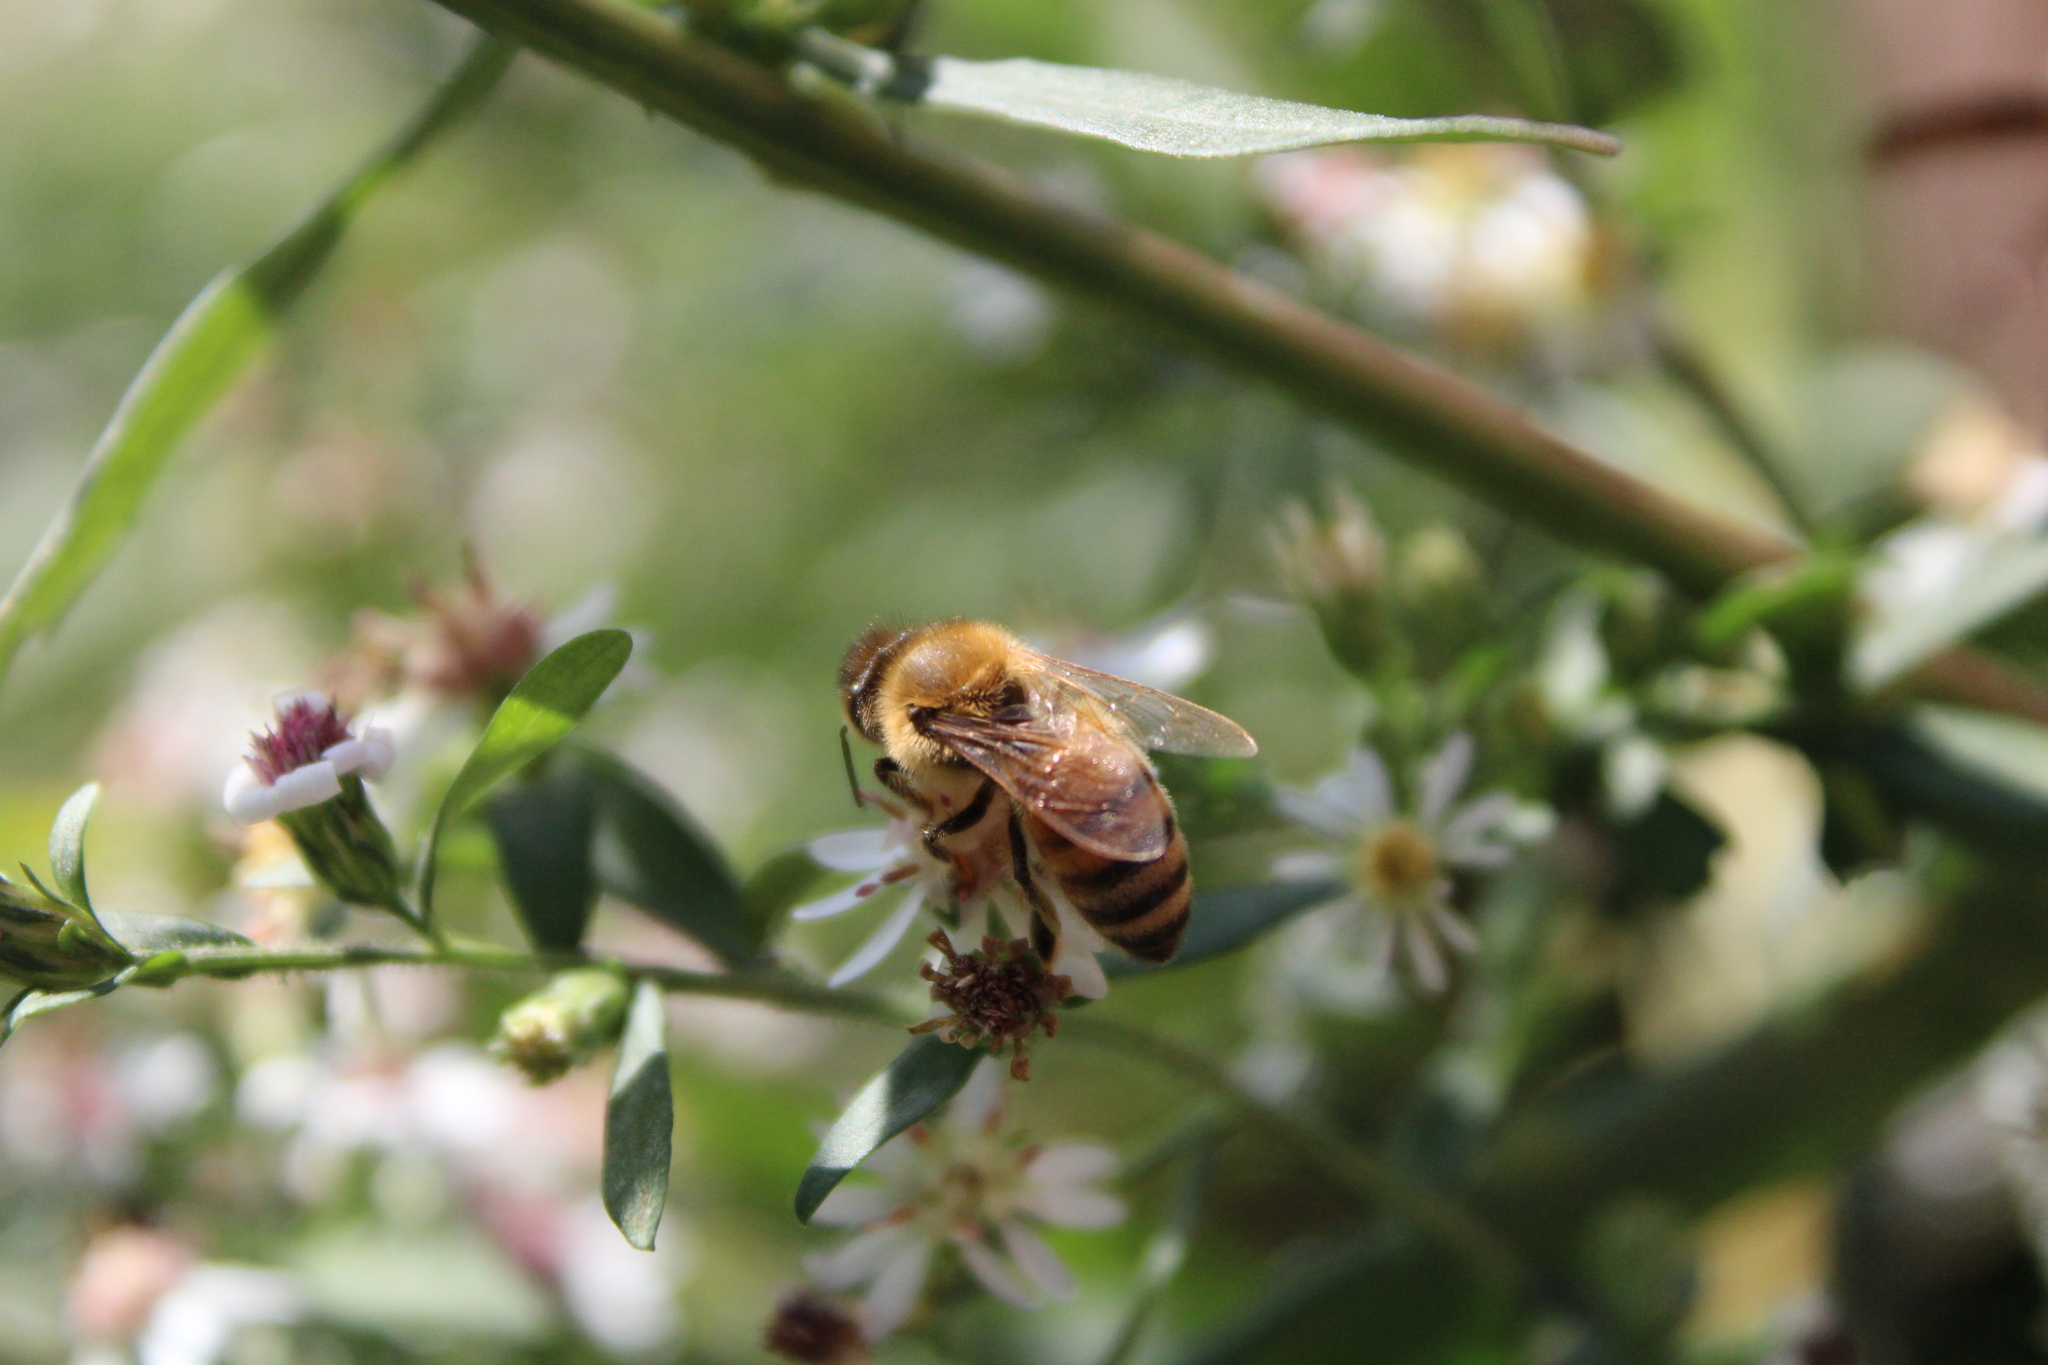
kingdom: Animalia
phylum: Arthropoda
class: Insecta
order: Hymenoptera
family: Apidae
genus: Apis
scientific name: Apis mellifera
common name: Honey bee
